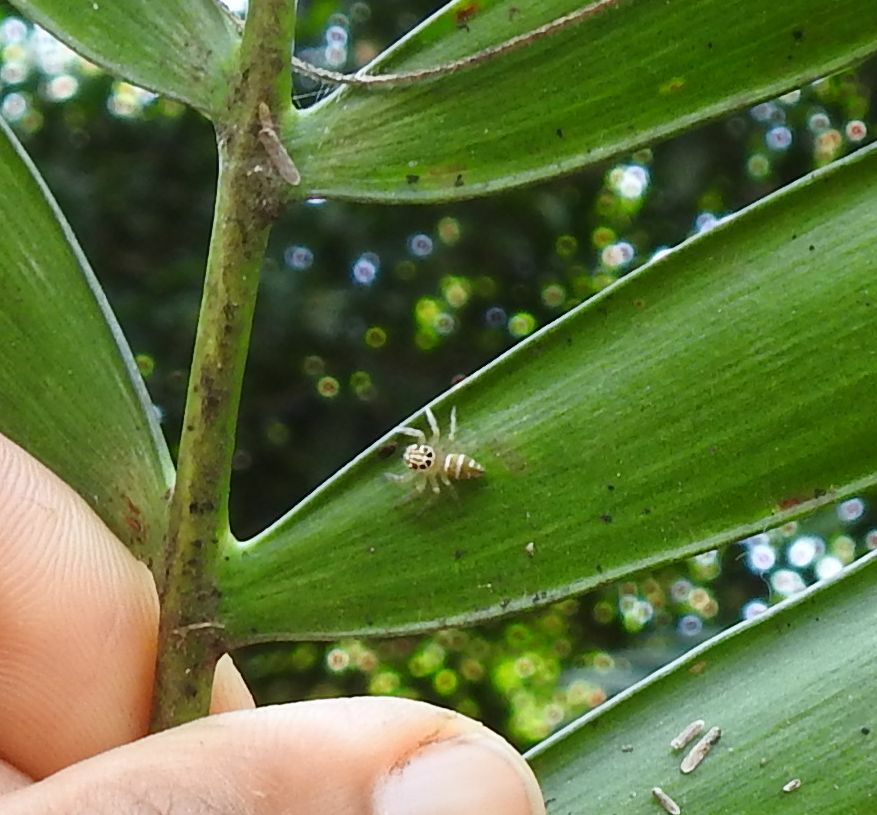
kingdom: Animalia
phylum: Arthropoda
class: Arachnida
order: Araneae
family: Salticidae
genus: Brancus
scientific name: Brancus mustelus
